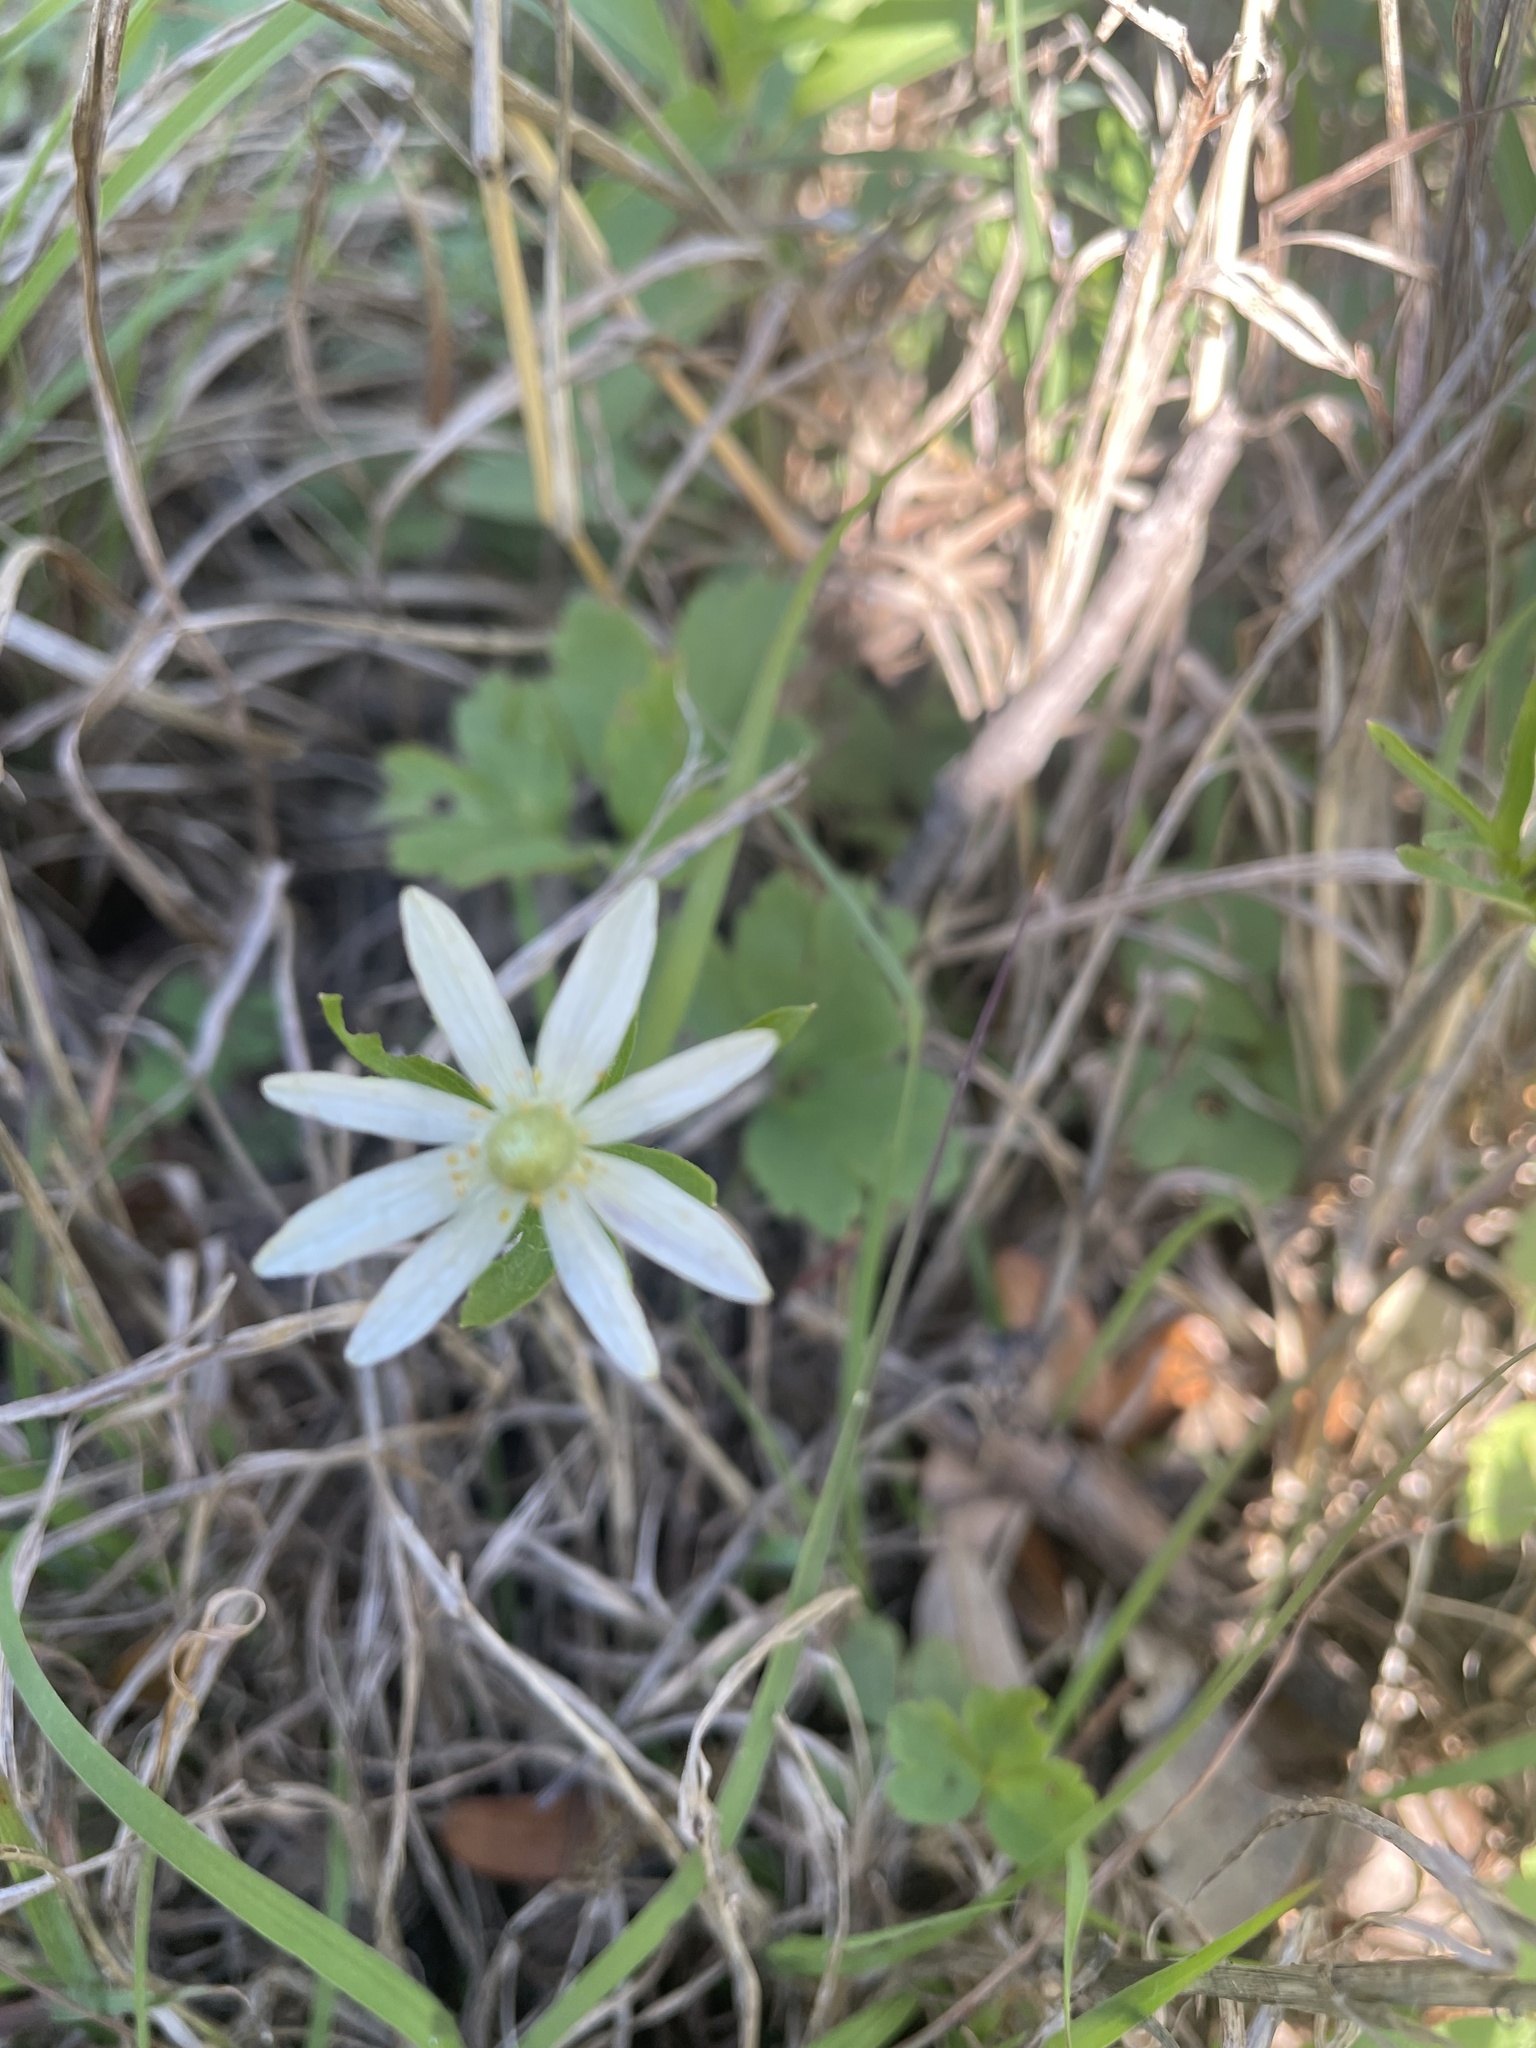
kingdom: Plantae
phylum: Tracheophyta
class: Magnoliopsida
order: Ranunculales
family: Ranunculaceae
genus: Anemone
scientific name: Anemone berlandieri
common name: Ten-petal anemone
